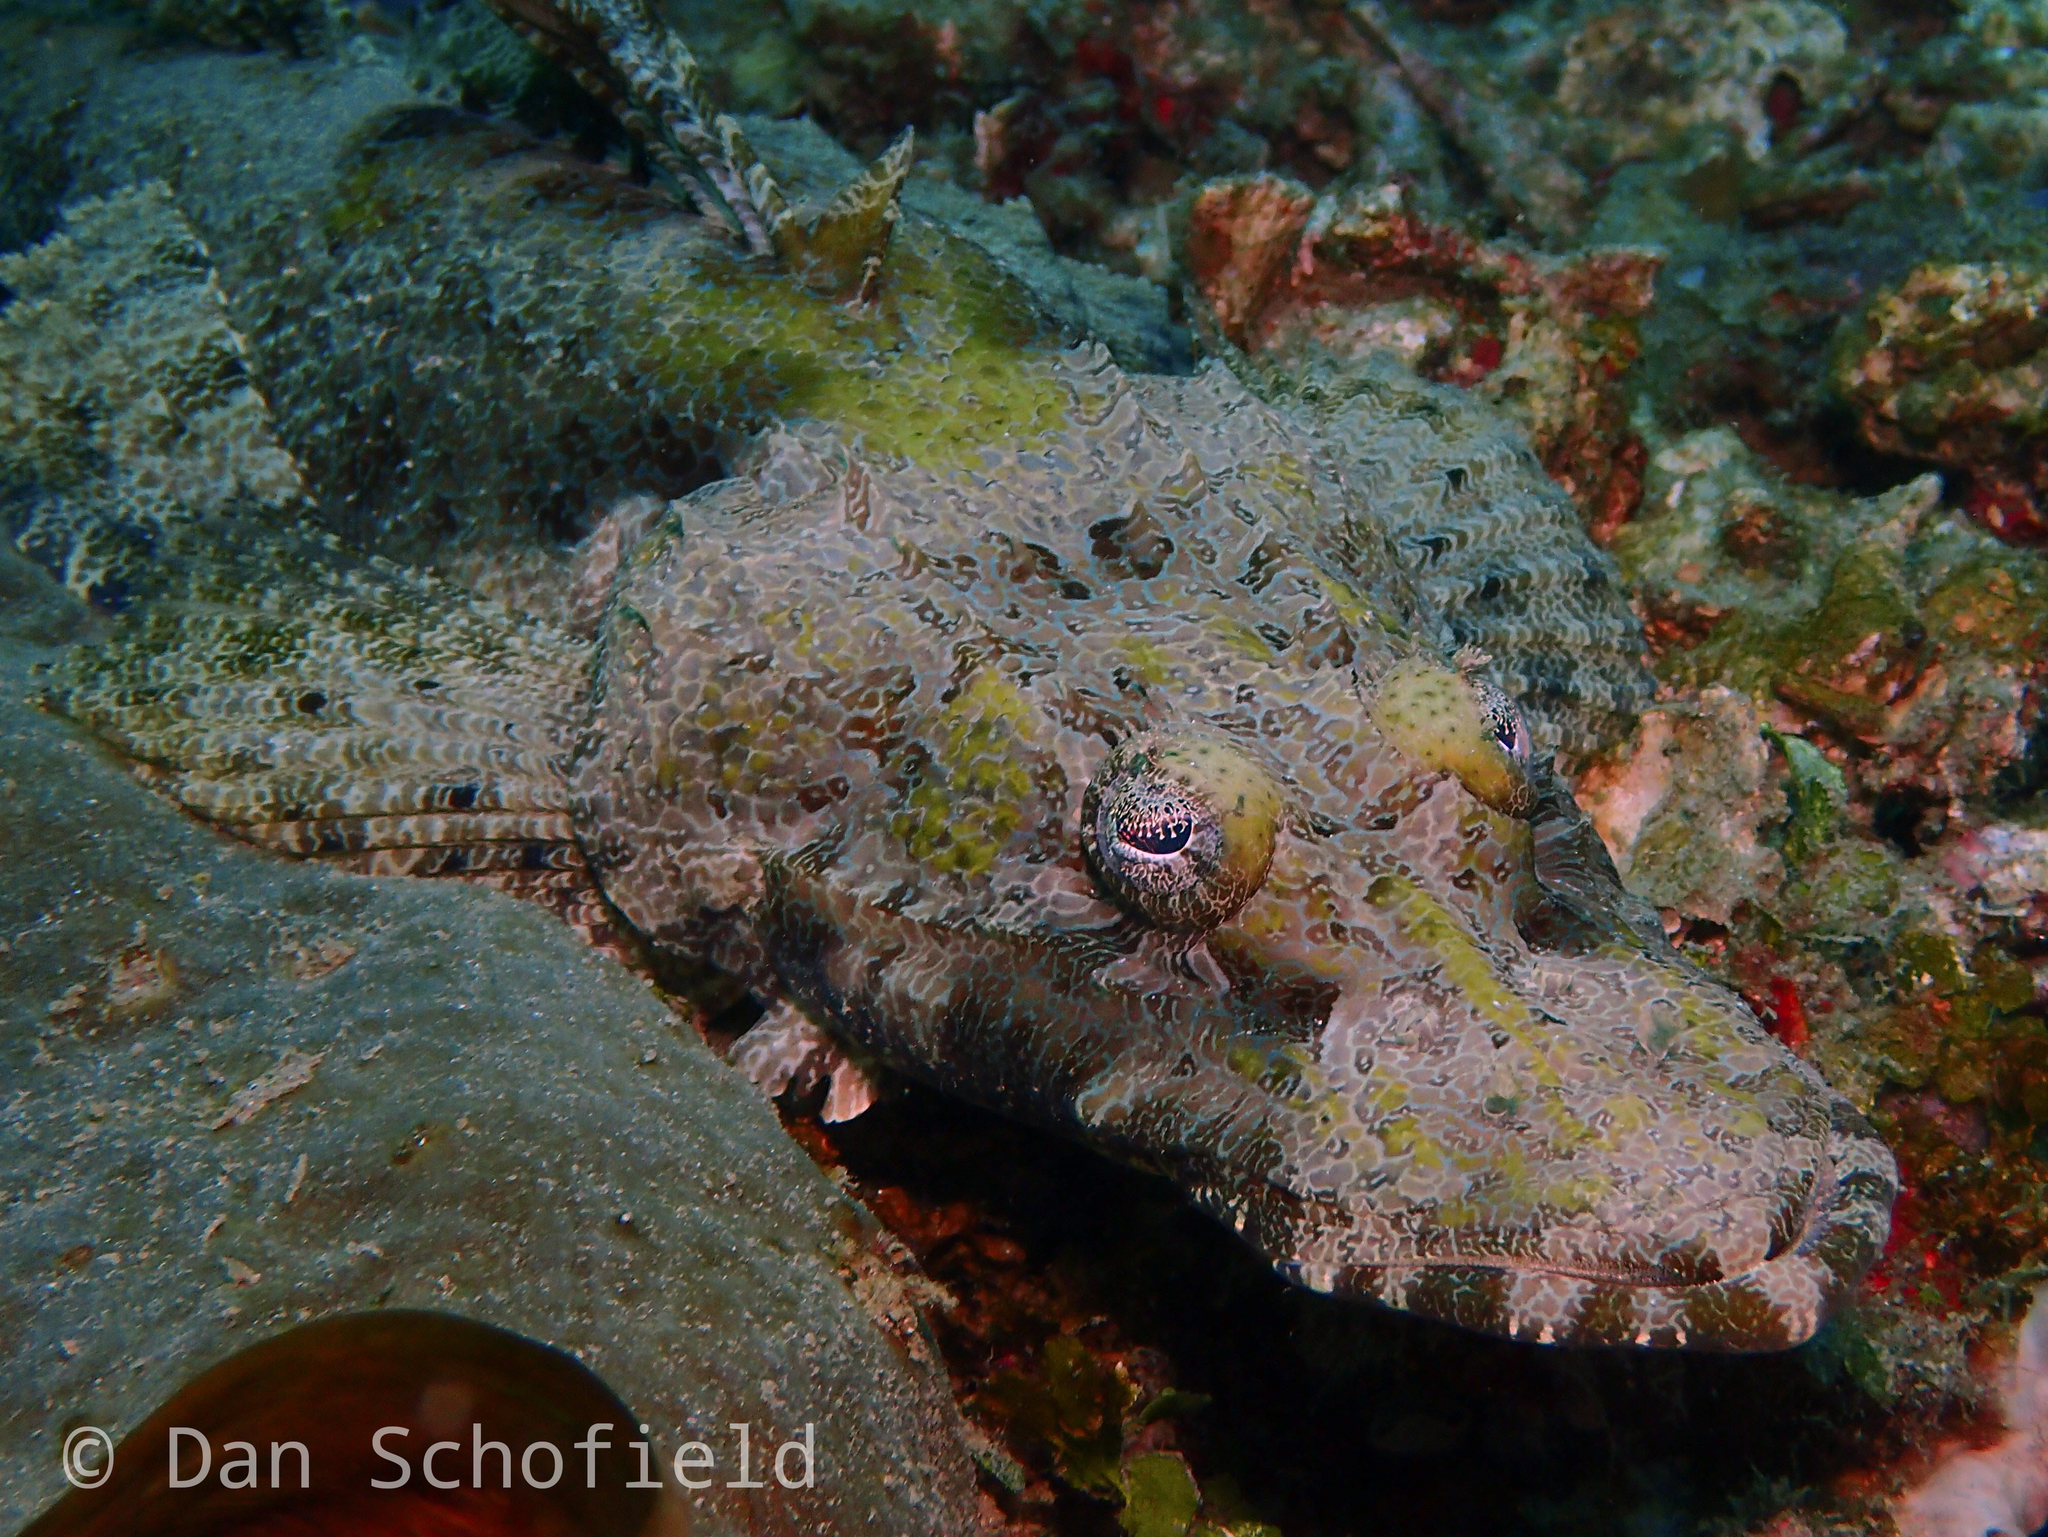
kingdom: Animalia
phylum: Chordata
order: Scorpaeniformes
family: Platycephalidae
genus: Cymbacephalus
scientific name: Cymbacephalus beauforti
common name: Crocodile fish
